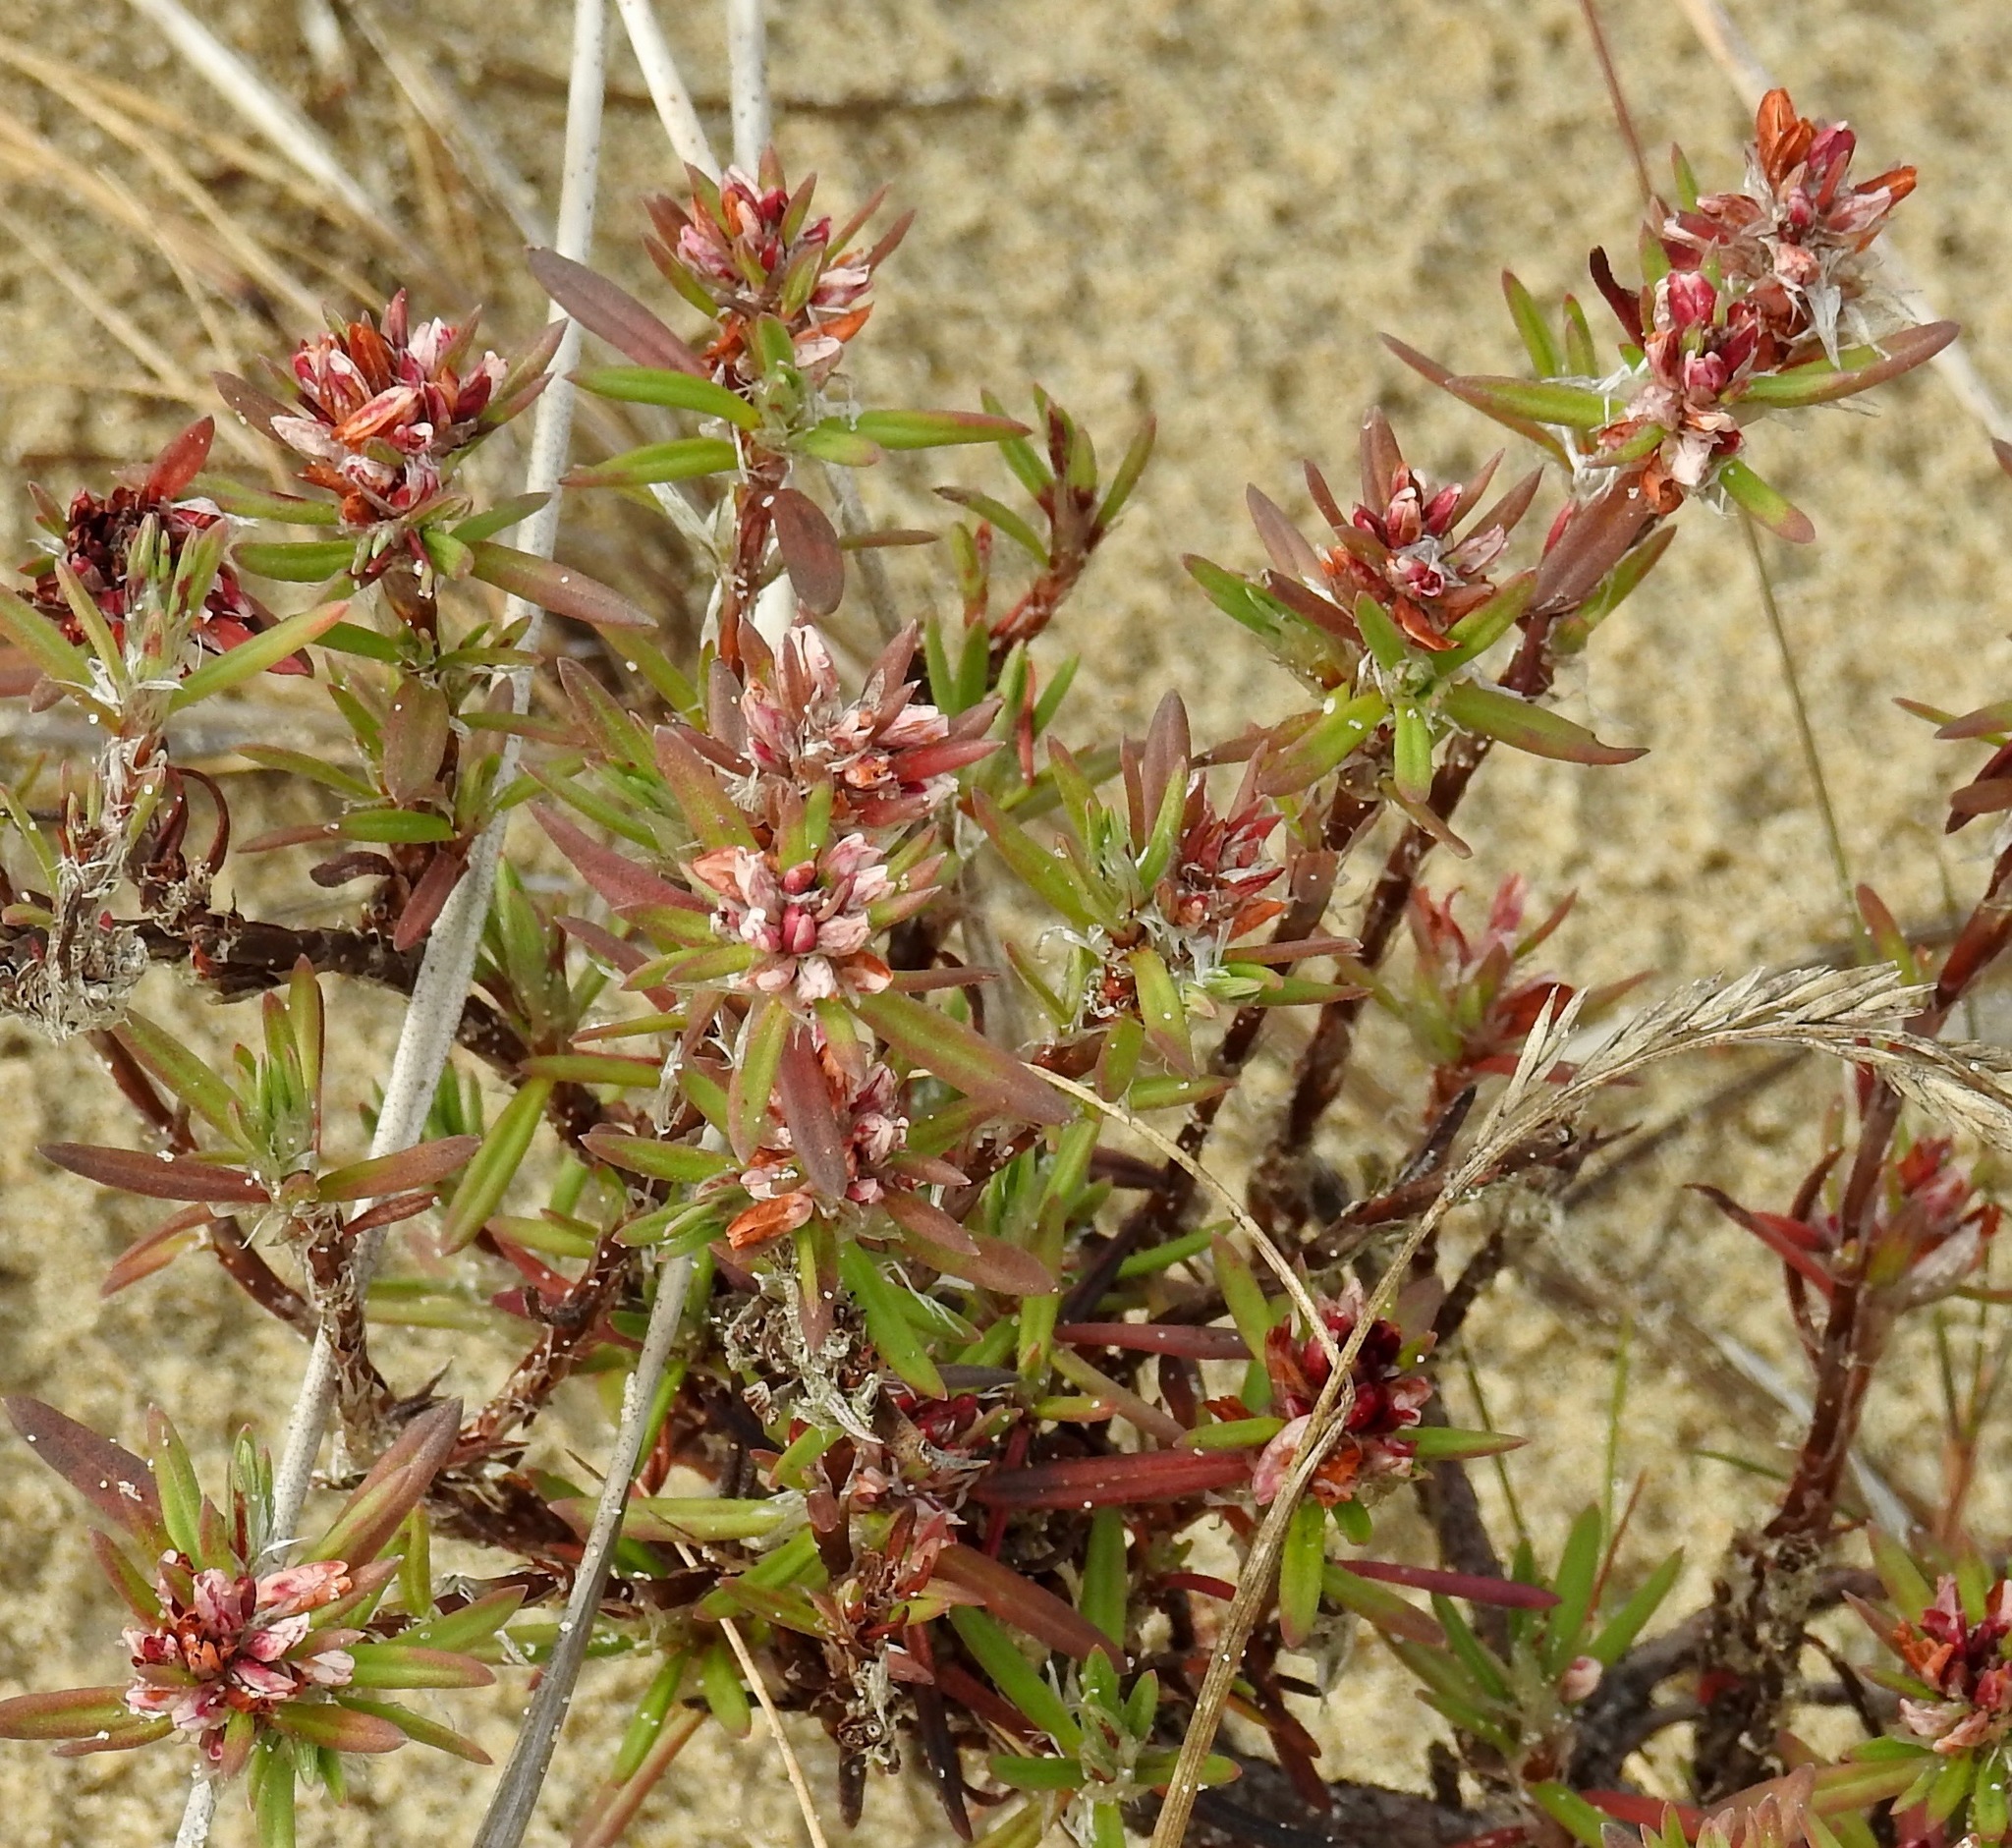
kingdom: Plantae
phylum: Tracheophyta
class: Magnoliopsida
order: Caryophyllales
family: Polygonaceae
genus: Polygonum
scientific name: Polygonum paronychia
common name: Dune knotweed
